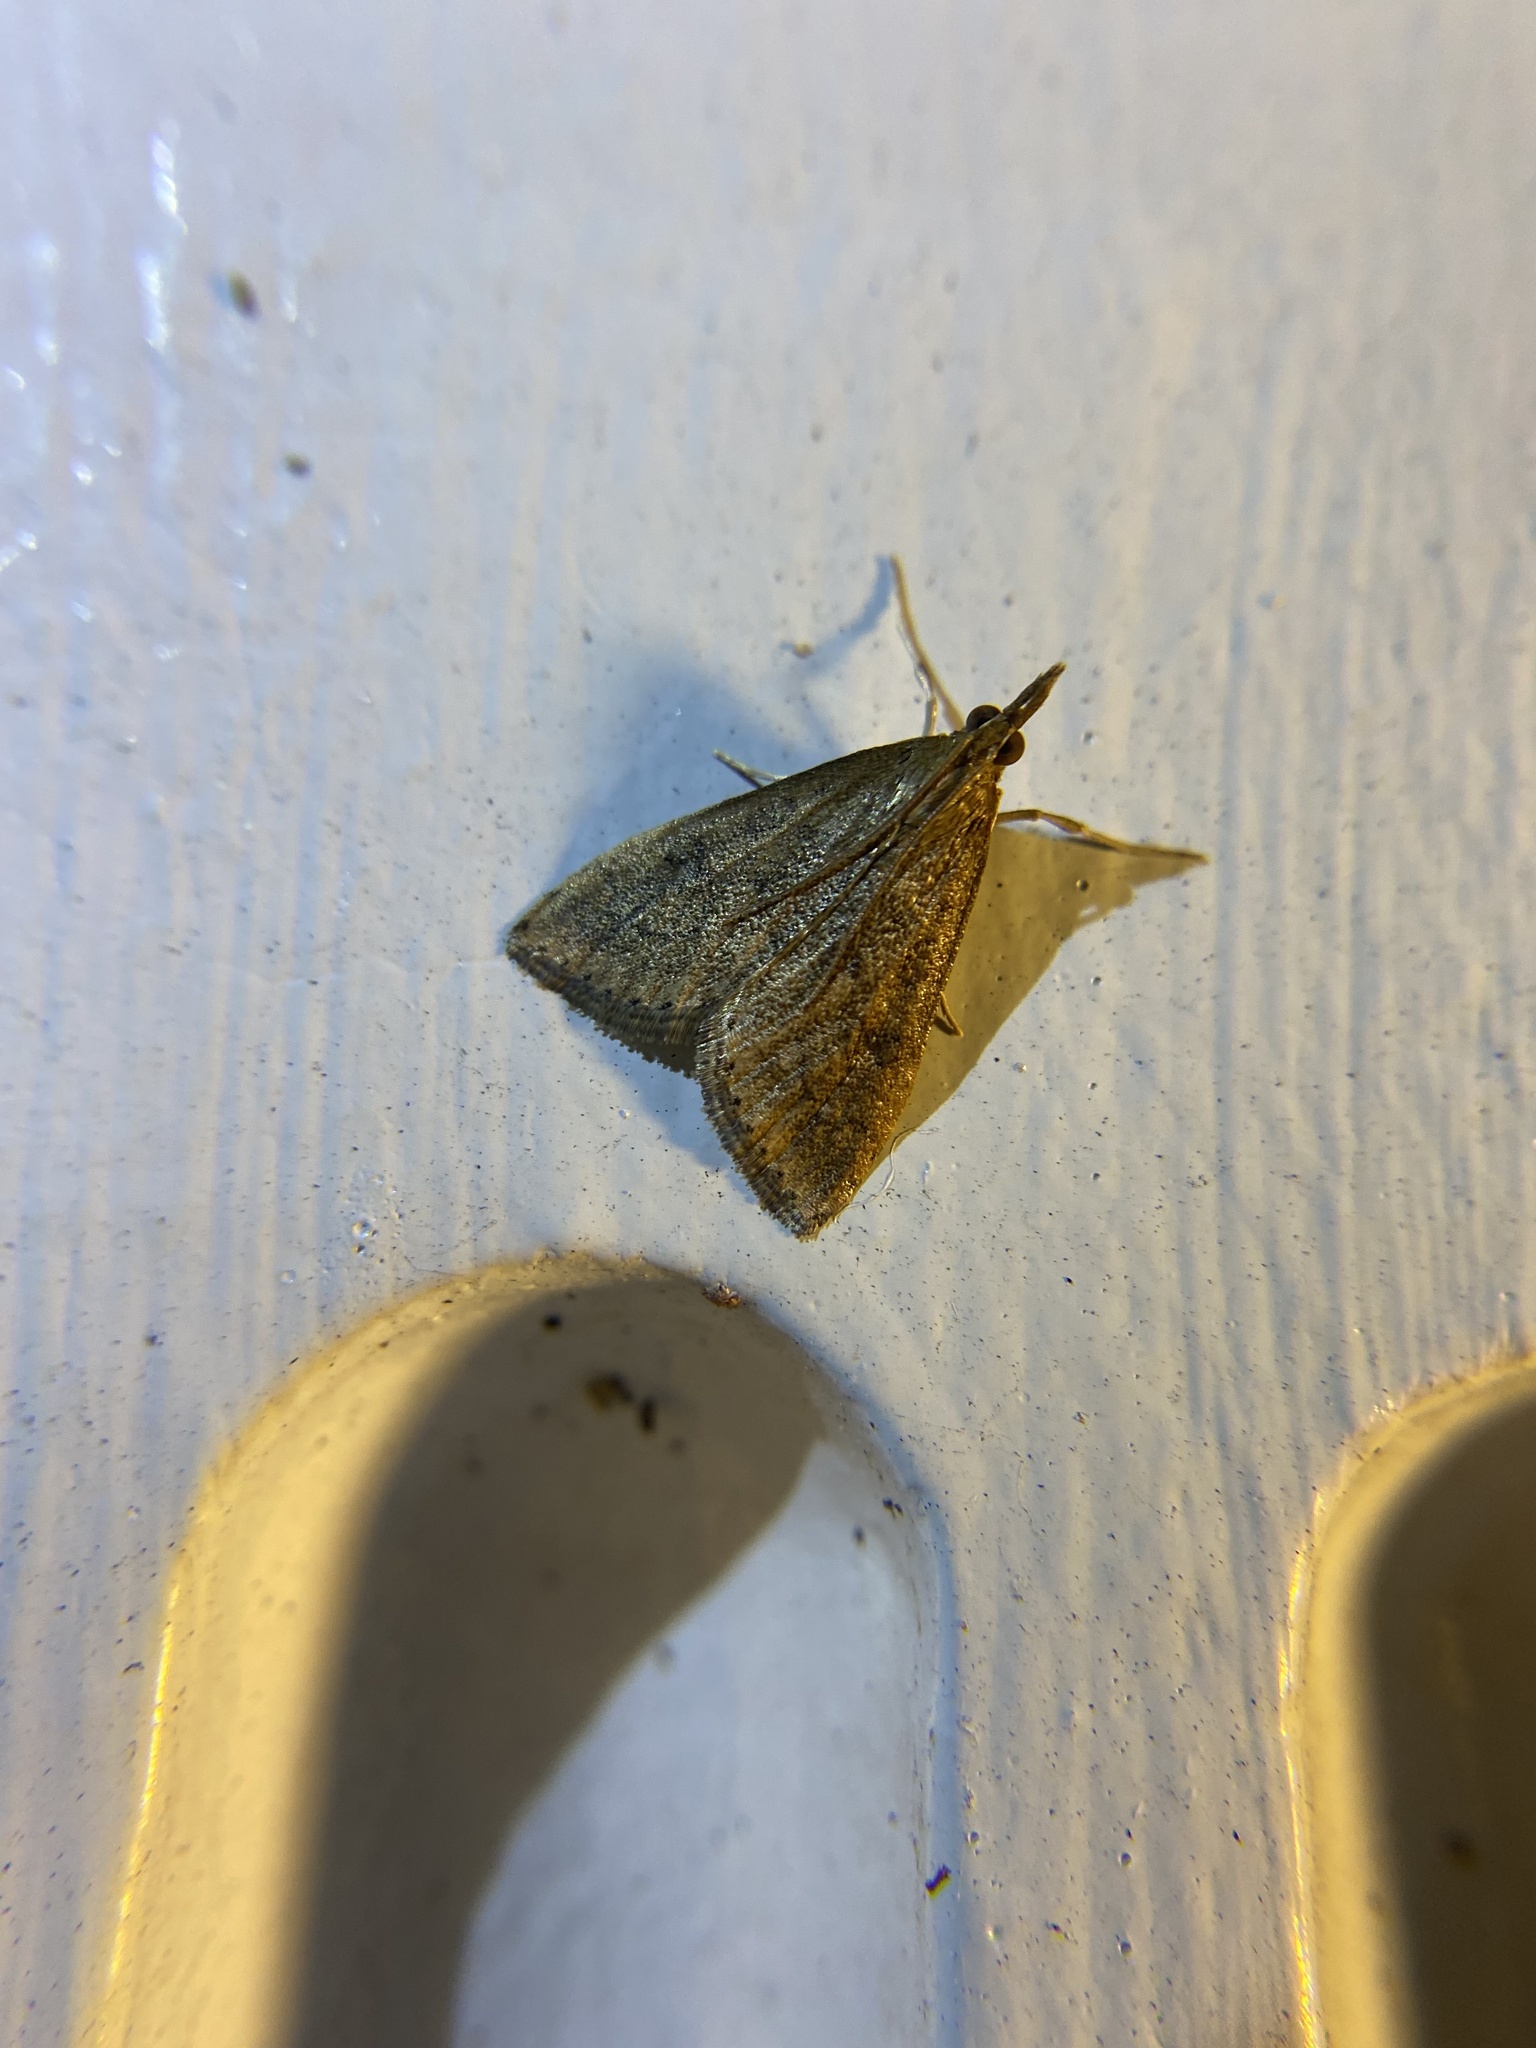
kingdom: Animalia
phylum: Arthropoda
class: Insecta
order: Lepidoptera
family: Crambidae
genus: Udea
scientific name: Udea rubigalis
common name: Celery leaftier moth
